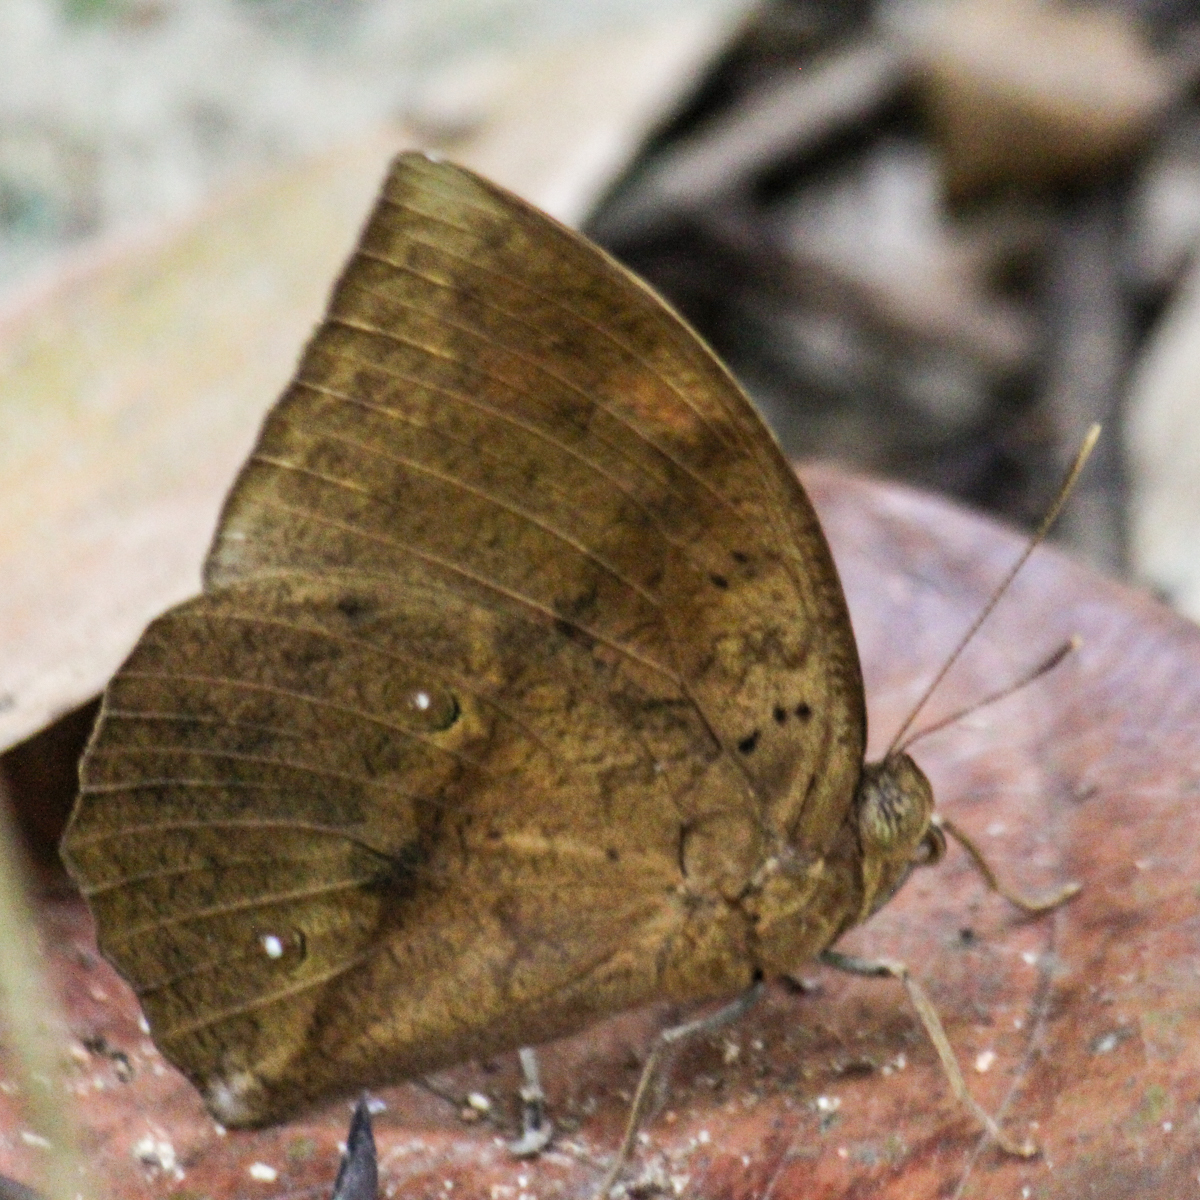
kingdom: Animalia
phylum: Arthropoda
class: Insecta
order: Lepidoptera
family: Nymphalidae
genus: Discophora
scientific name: Discophora timora
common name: Great duffer
